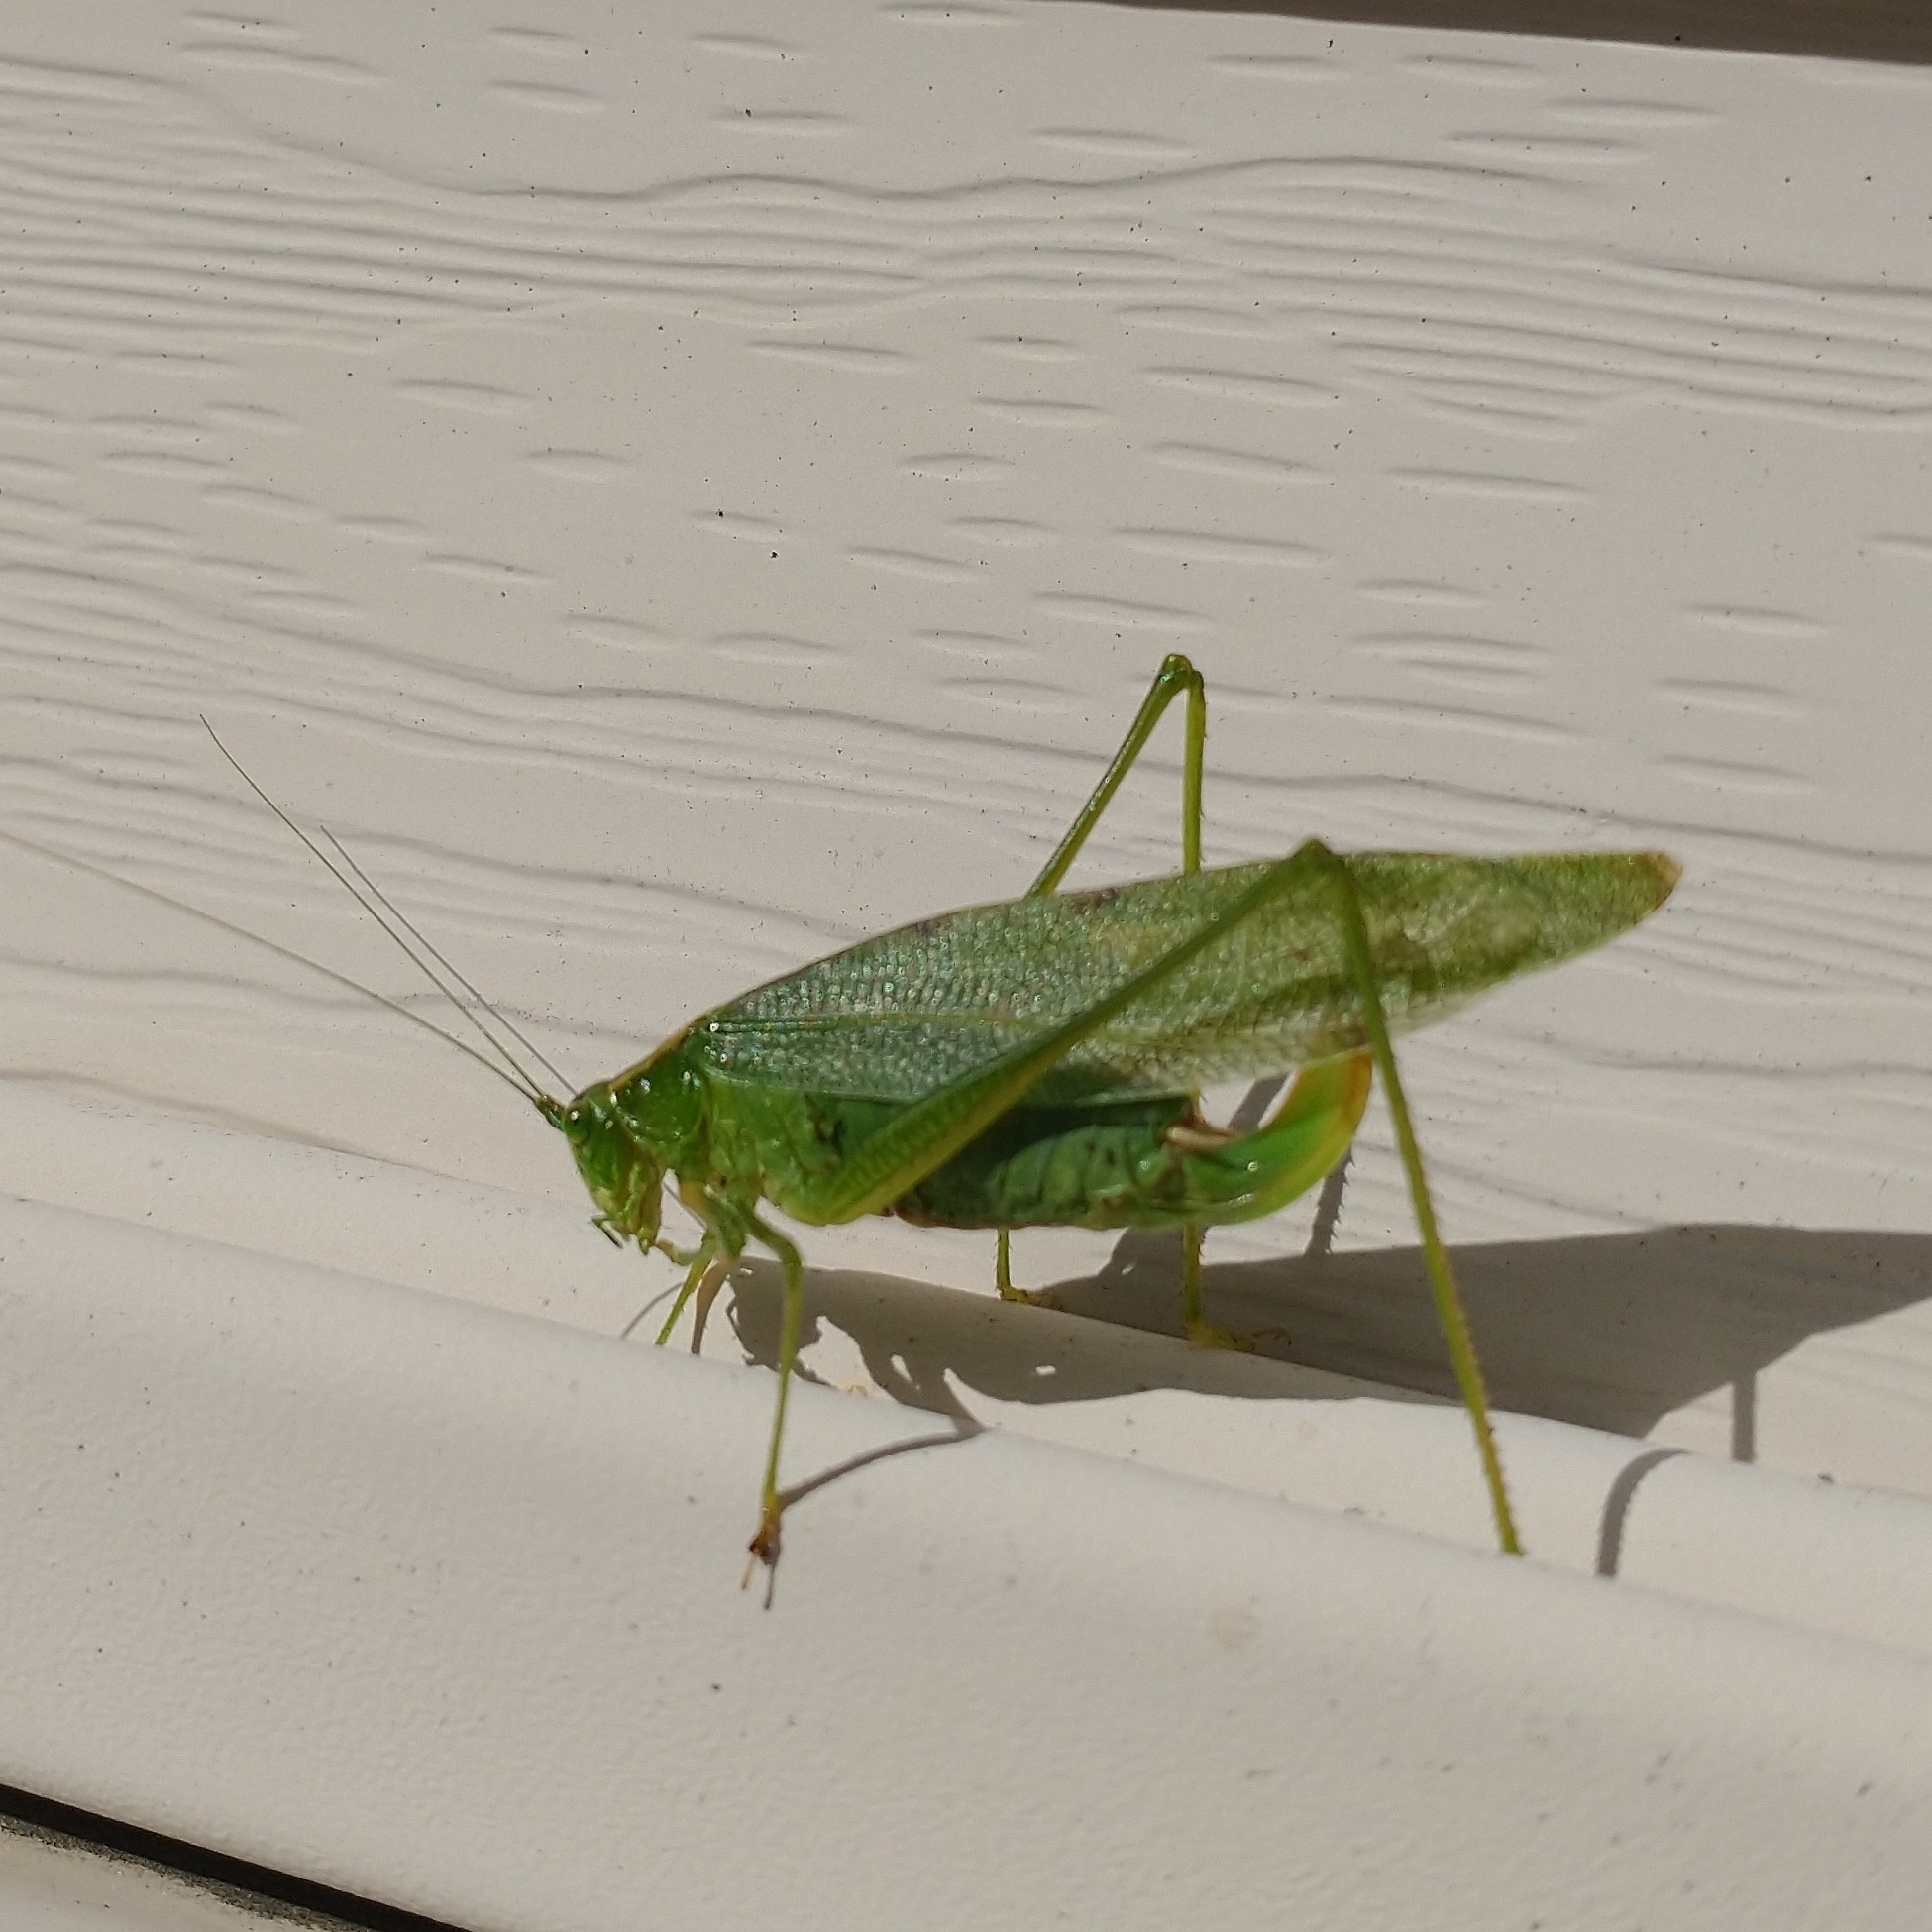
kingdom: Animalia
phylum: Arthropoda
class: Insecta
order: Orthoptera
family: Tettigoniidae
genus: Scudderia
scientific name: Scudderia septentrionalis
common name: Northern bush-katydid
